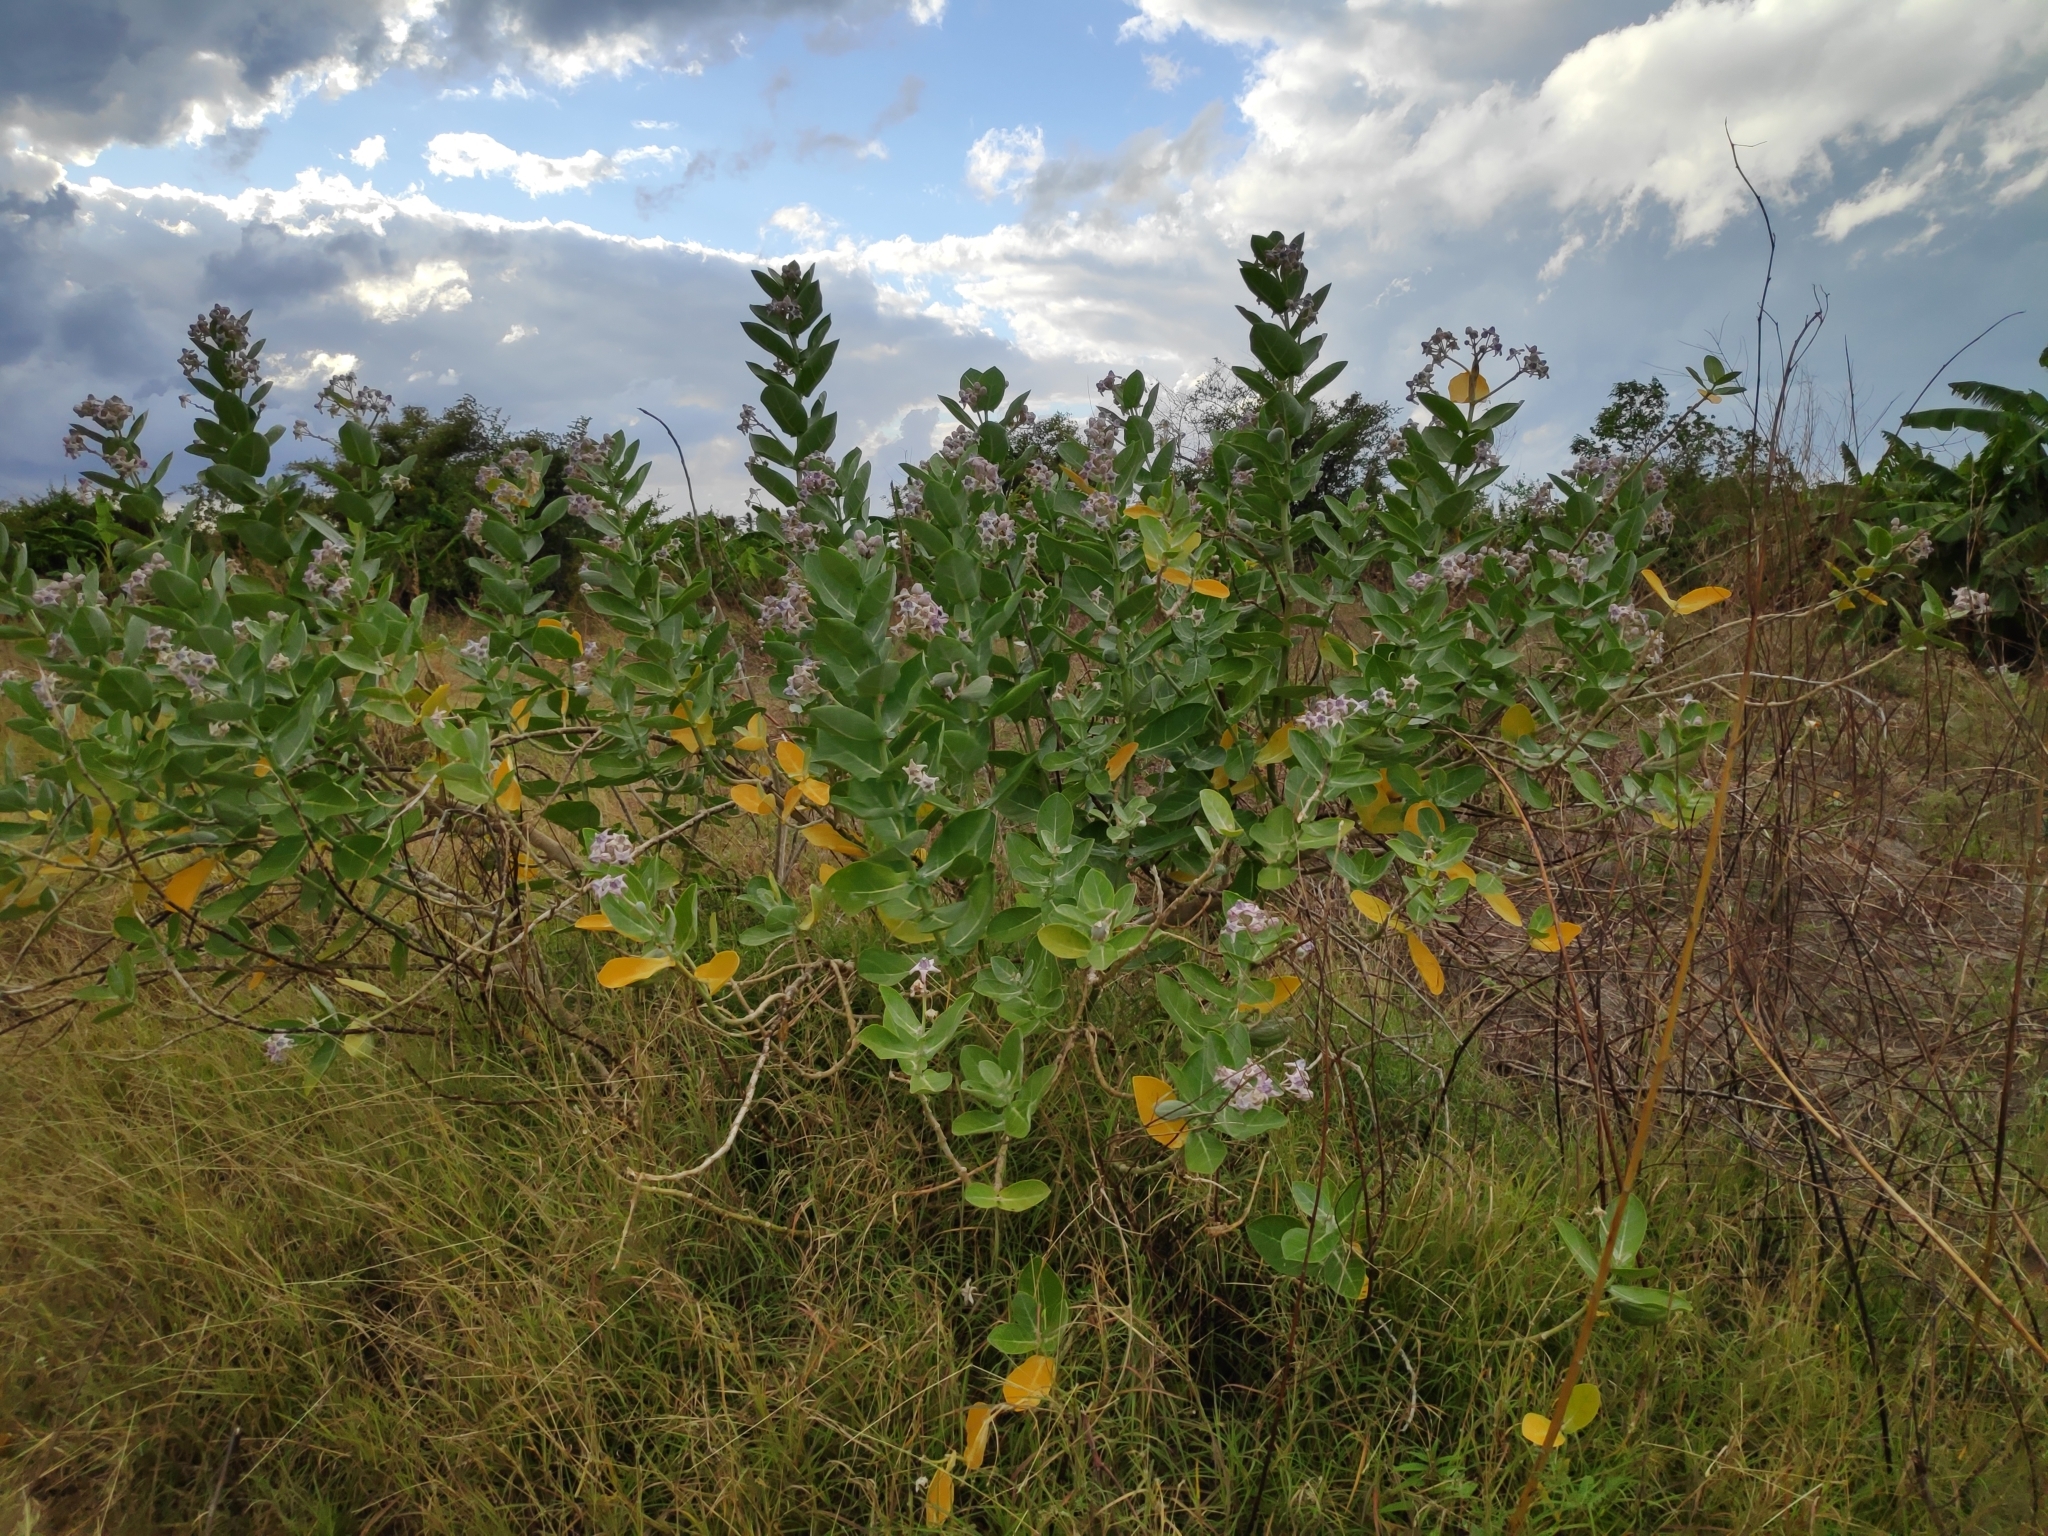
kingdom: Plantae
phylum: Tracheophyta
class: Magnoliopsida
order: Gentianales
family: Apocynaceae
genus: Calotropis
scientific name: Calotropis gigantea
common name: Crown flower
